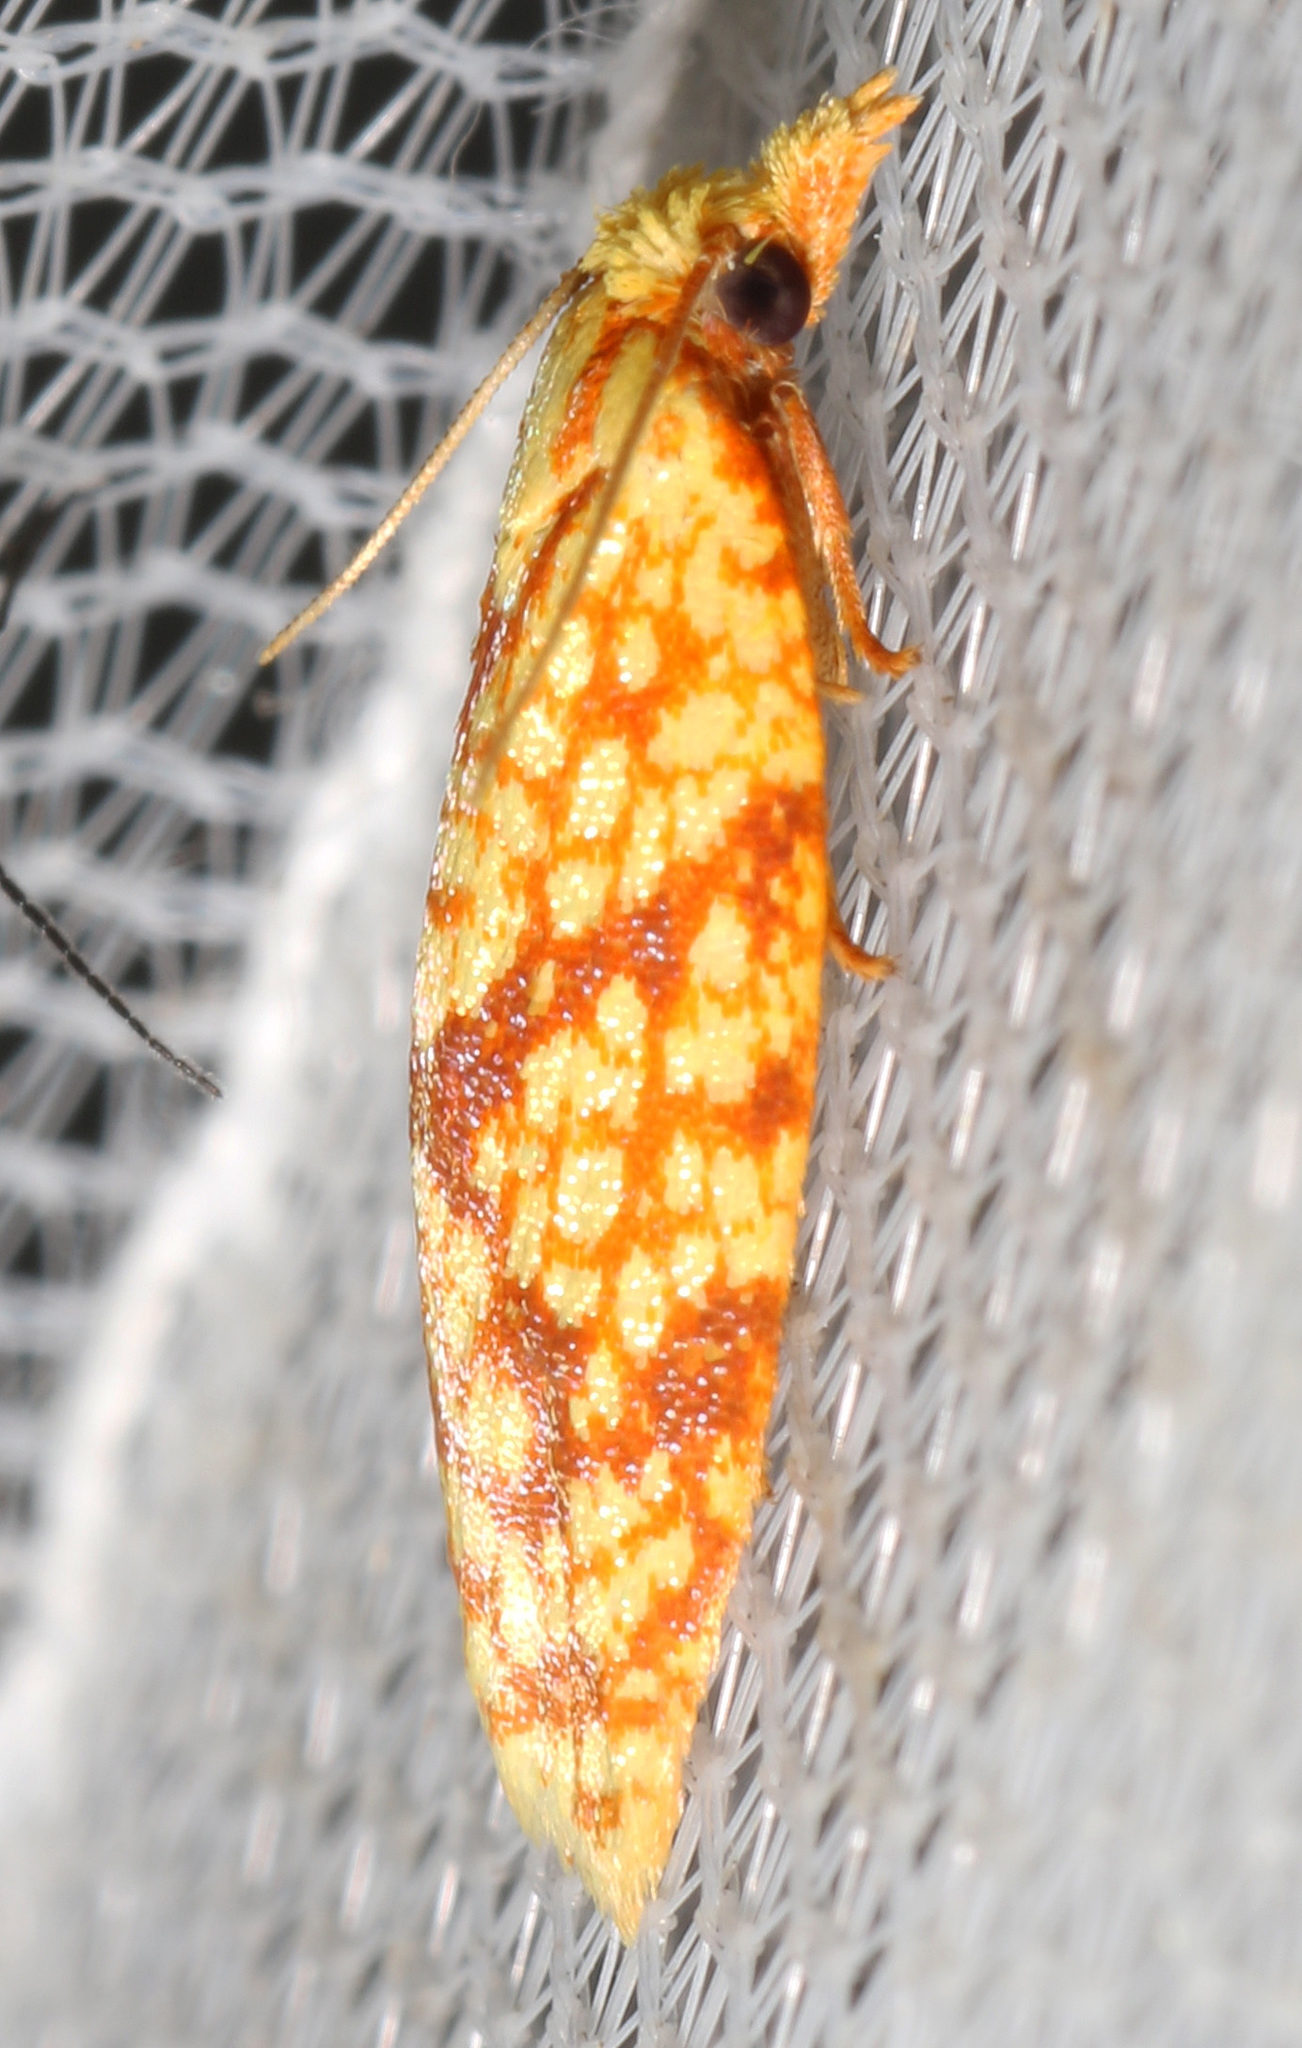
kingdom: Animalia
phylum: Arthropoda
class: Insecta
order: Lepidoptera
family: Tortricidae
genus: Sparganothis
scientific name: Sparganothis sulfureana
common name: Sparganothis fruitworm moth
